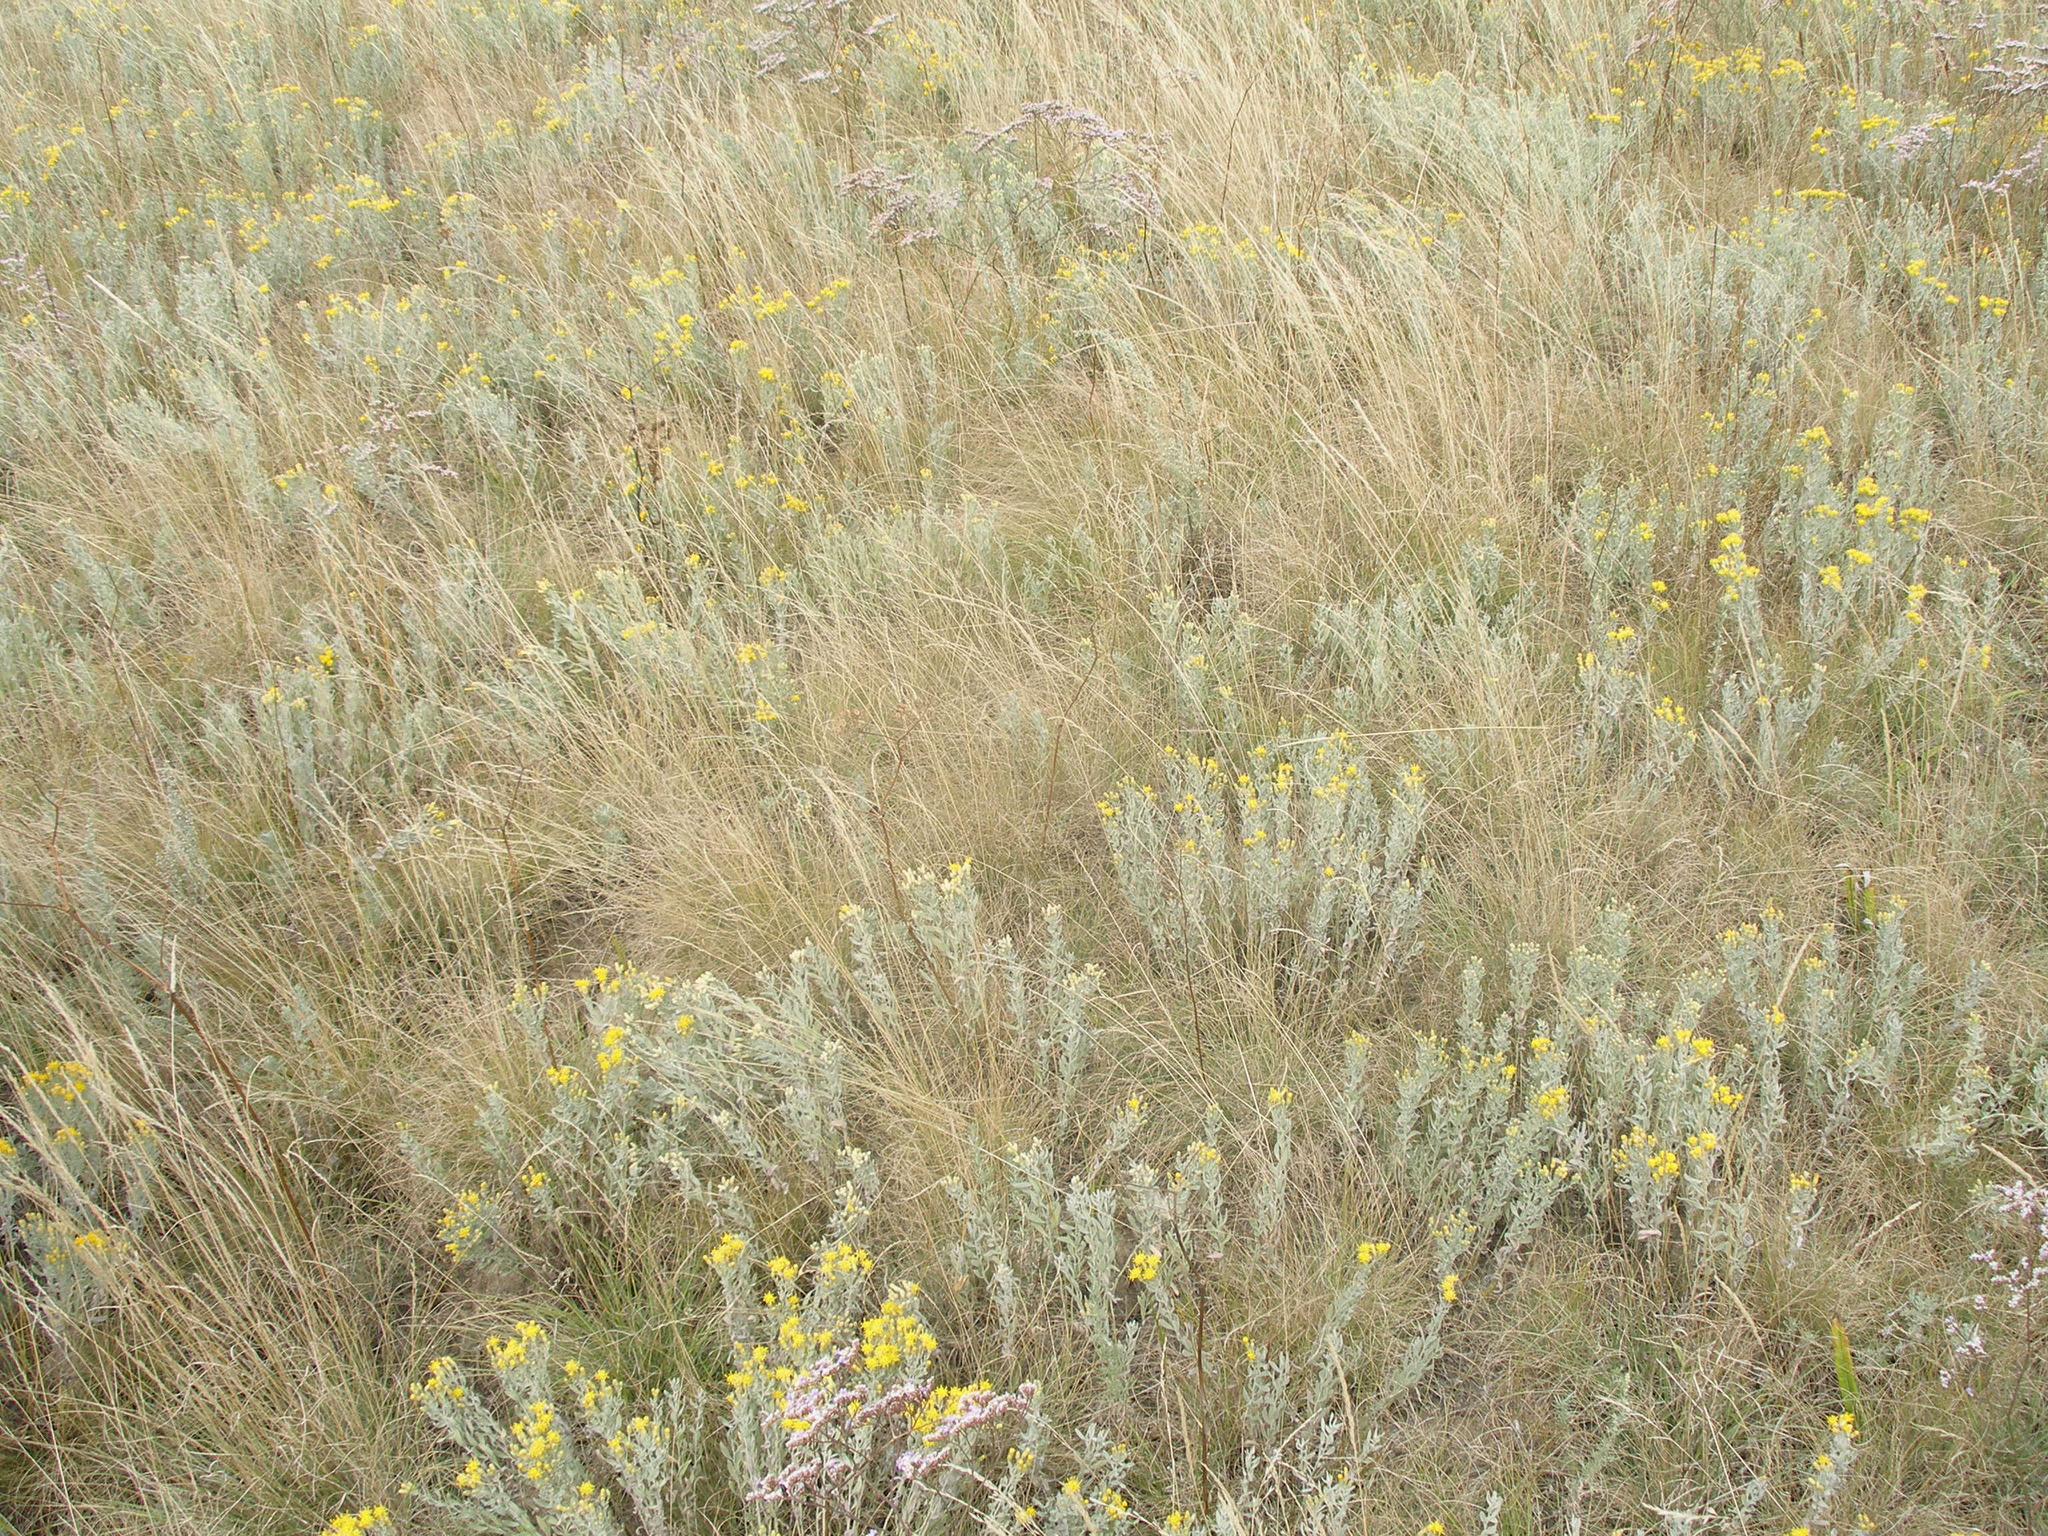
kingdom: Plantae
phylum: Tracheophyta
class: Magnoliopsida
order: Asterales
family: Asteraceae
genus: Galatella
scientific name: Galatella villosa
